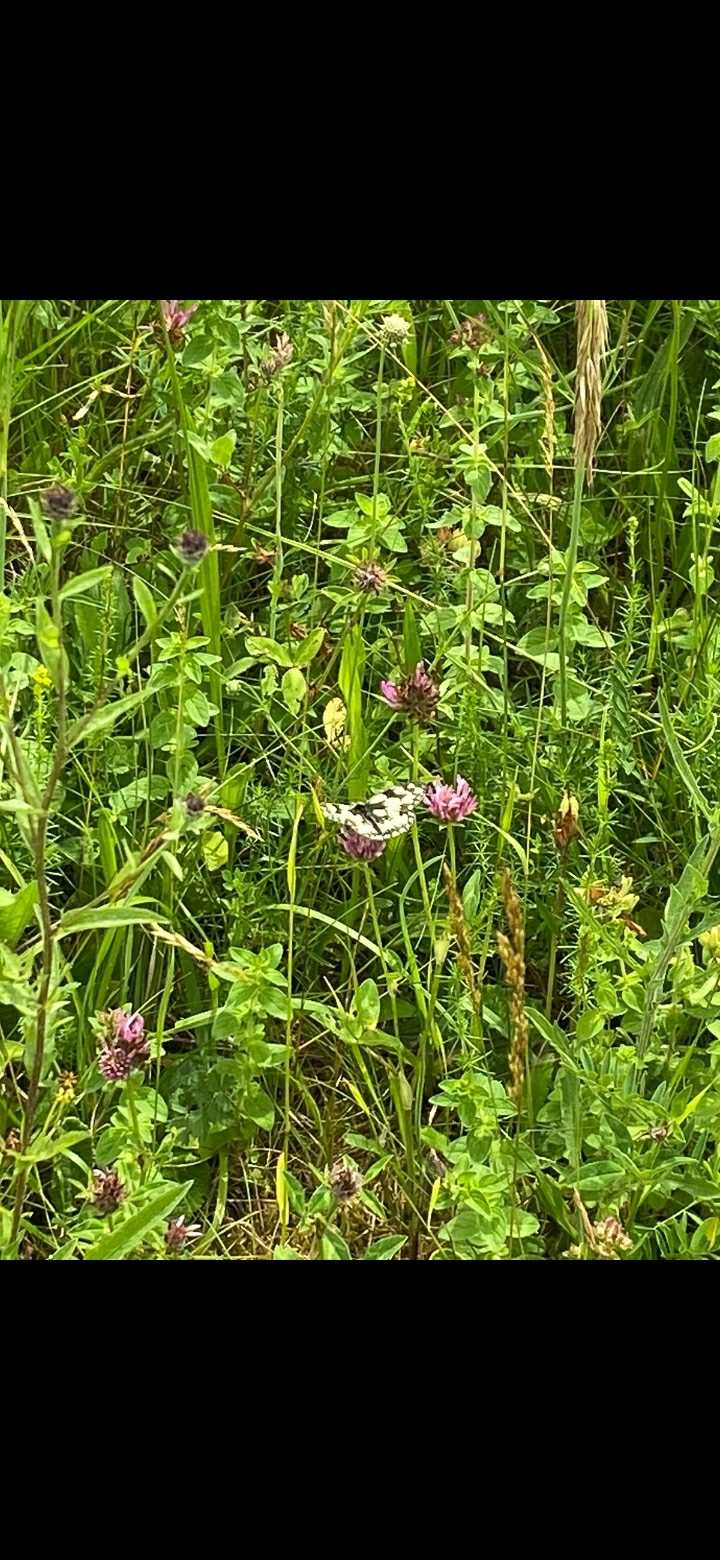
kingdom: Animalia
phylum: Arthropoda
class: Insecta
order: Lepidoptera
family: Nymphalidae
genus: Melanargia
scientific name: Melanargia galathea
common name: Marbled white
